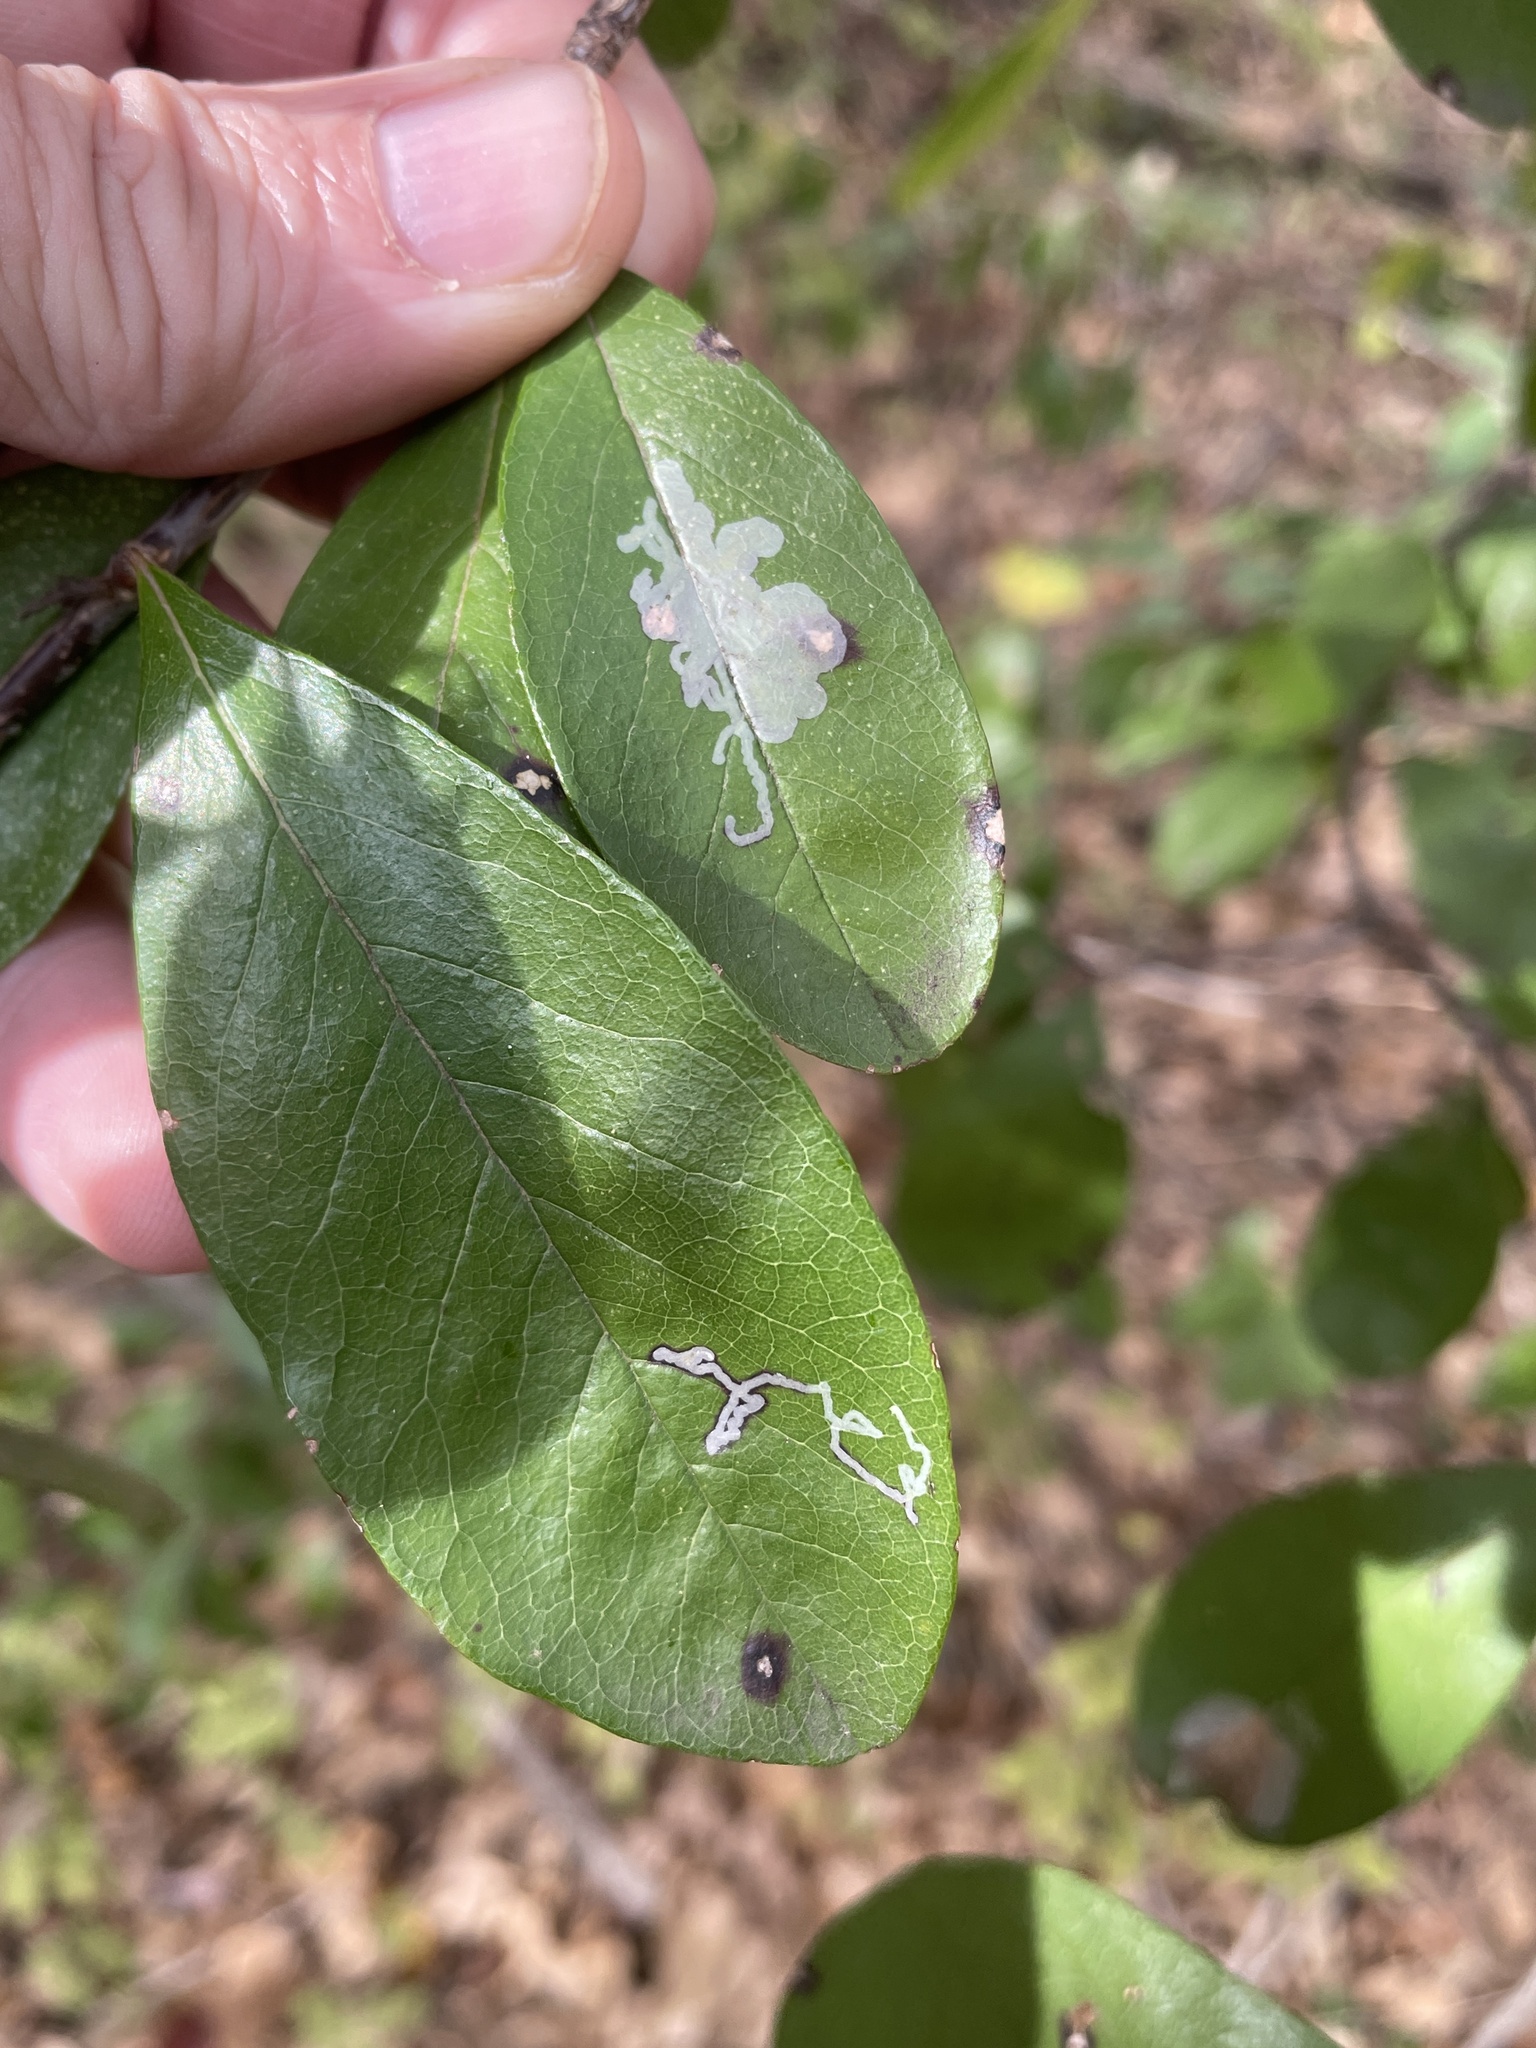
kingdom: Animalia
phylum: Arthropoda
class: Insecta
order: Lepidoptera
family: Gracillariidae
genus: Parectopa
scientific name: Parectopa bumeliella
